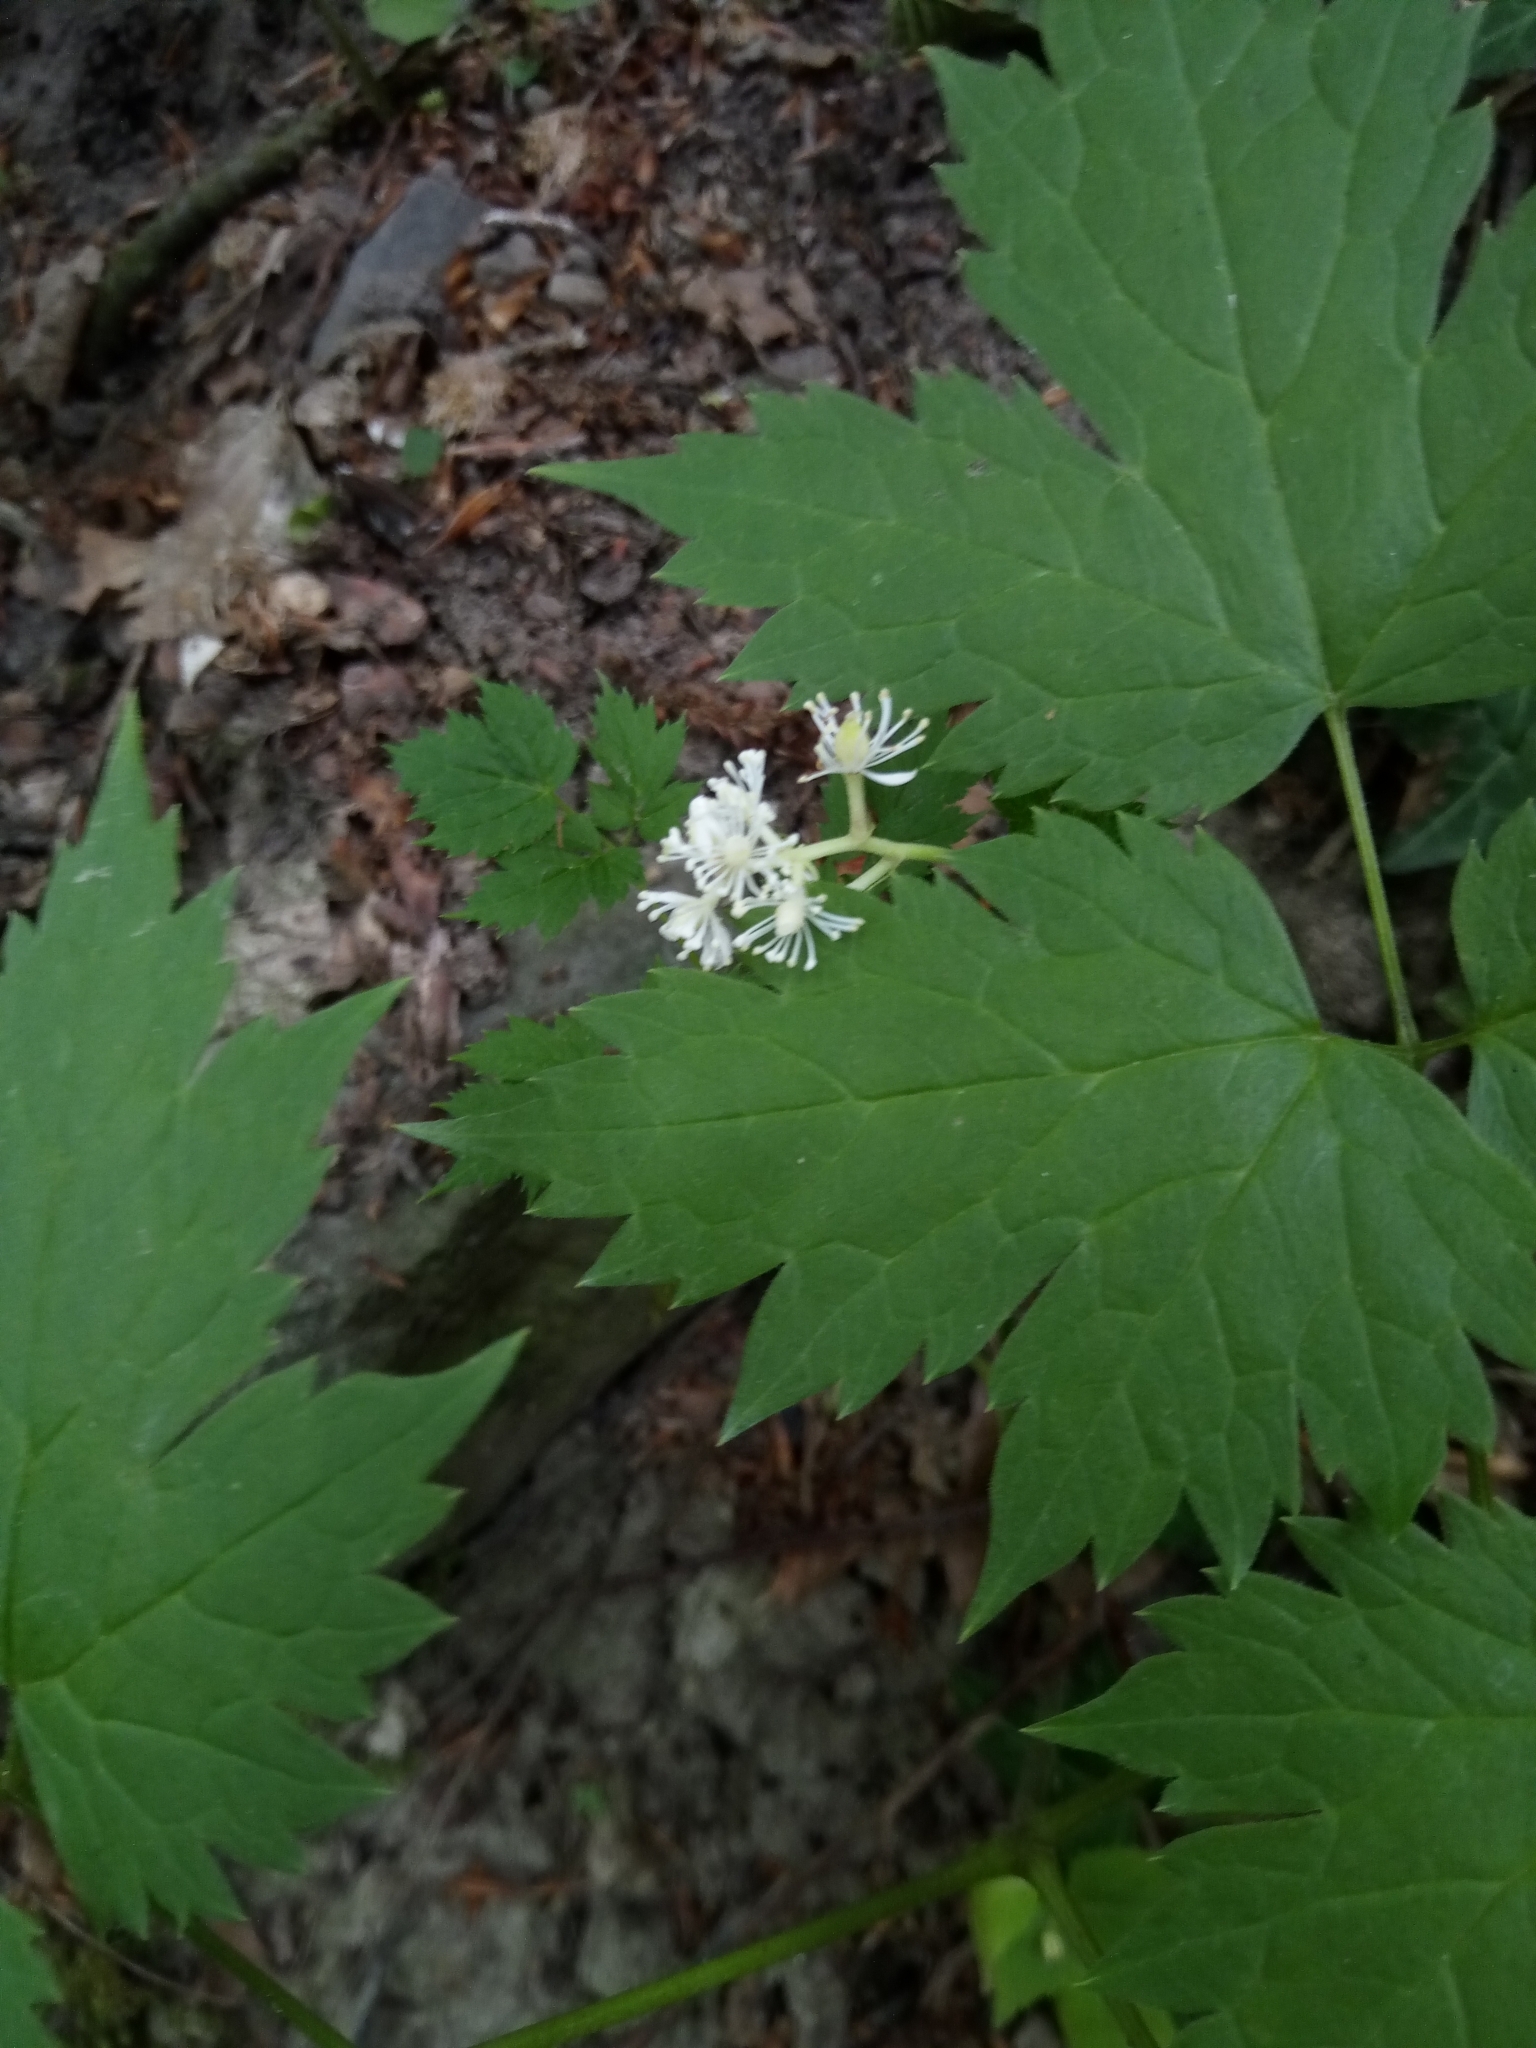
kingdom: Plantae
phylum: Tracheophyta
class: Magnoliopsida
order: Ranunculales
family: Ranunculaceae
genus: Actaea
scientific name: Actaea spicata
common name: Baneberry
